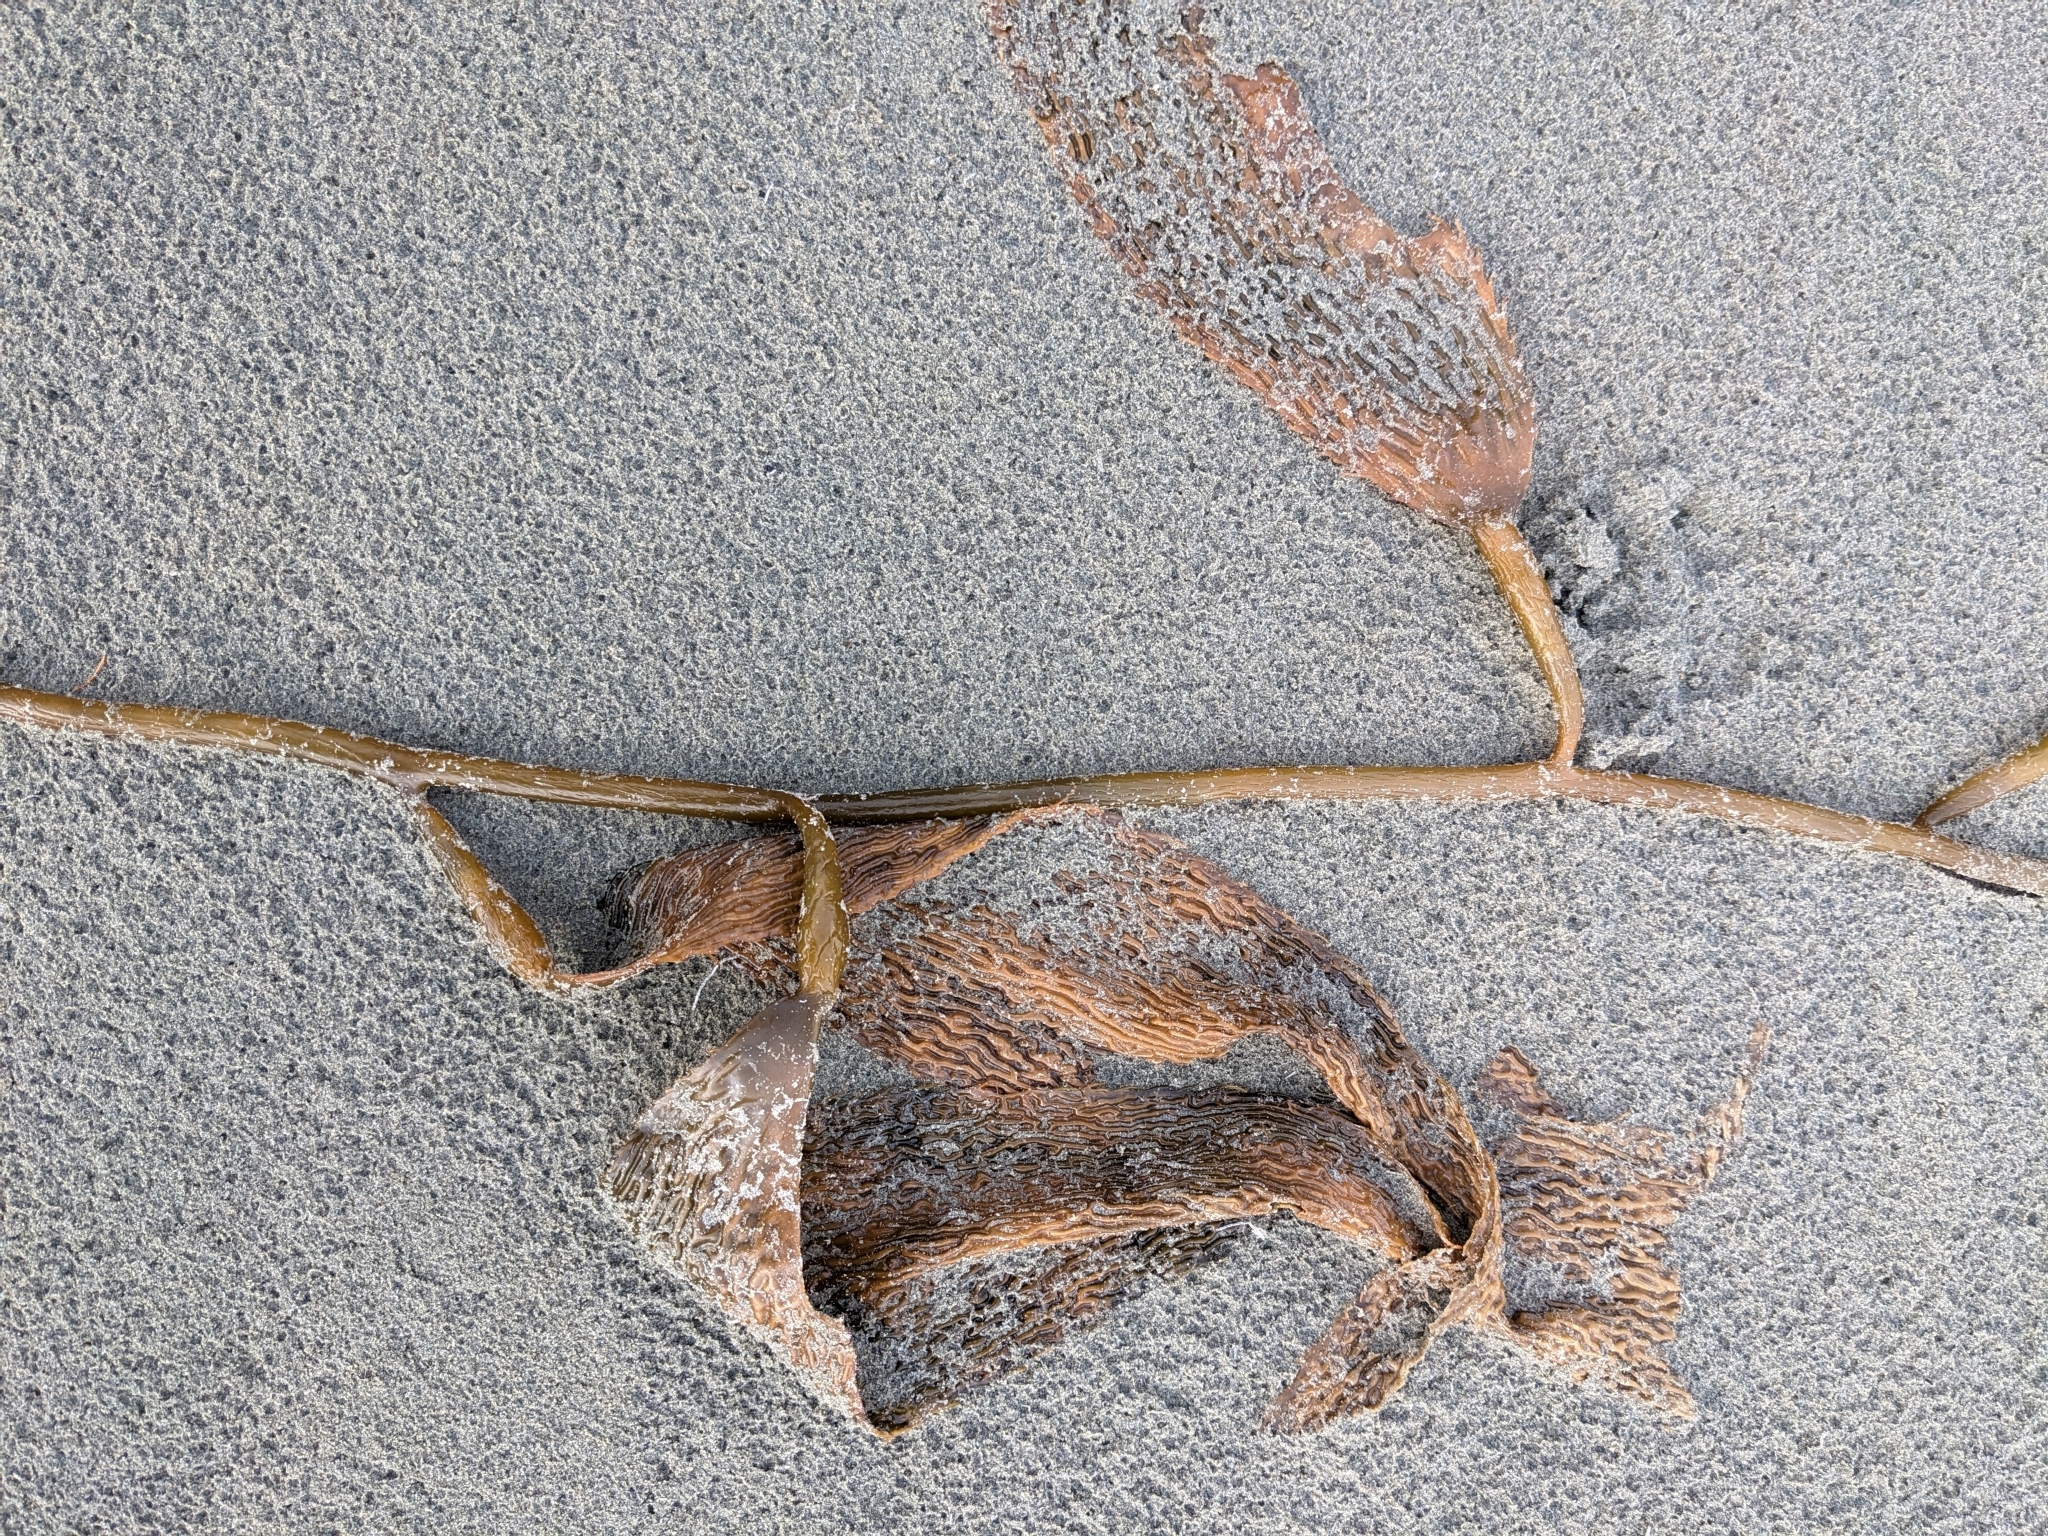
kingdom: Chromista
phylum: Ochrophyta
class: Phaeophyceae
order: Laminariales
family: Laminariaceae
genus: Macrocystis
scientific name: Macrocystis pyrifera
